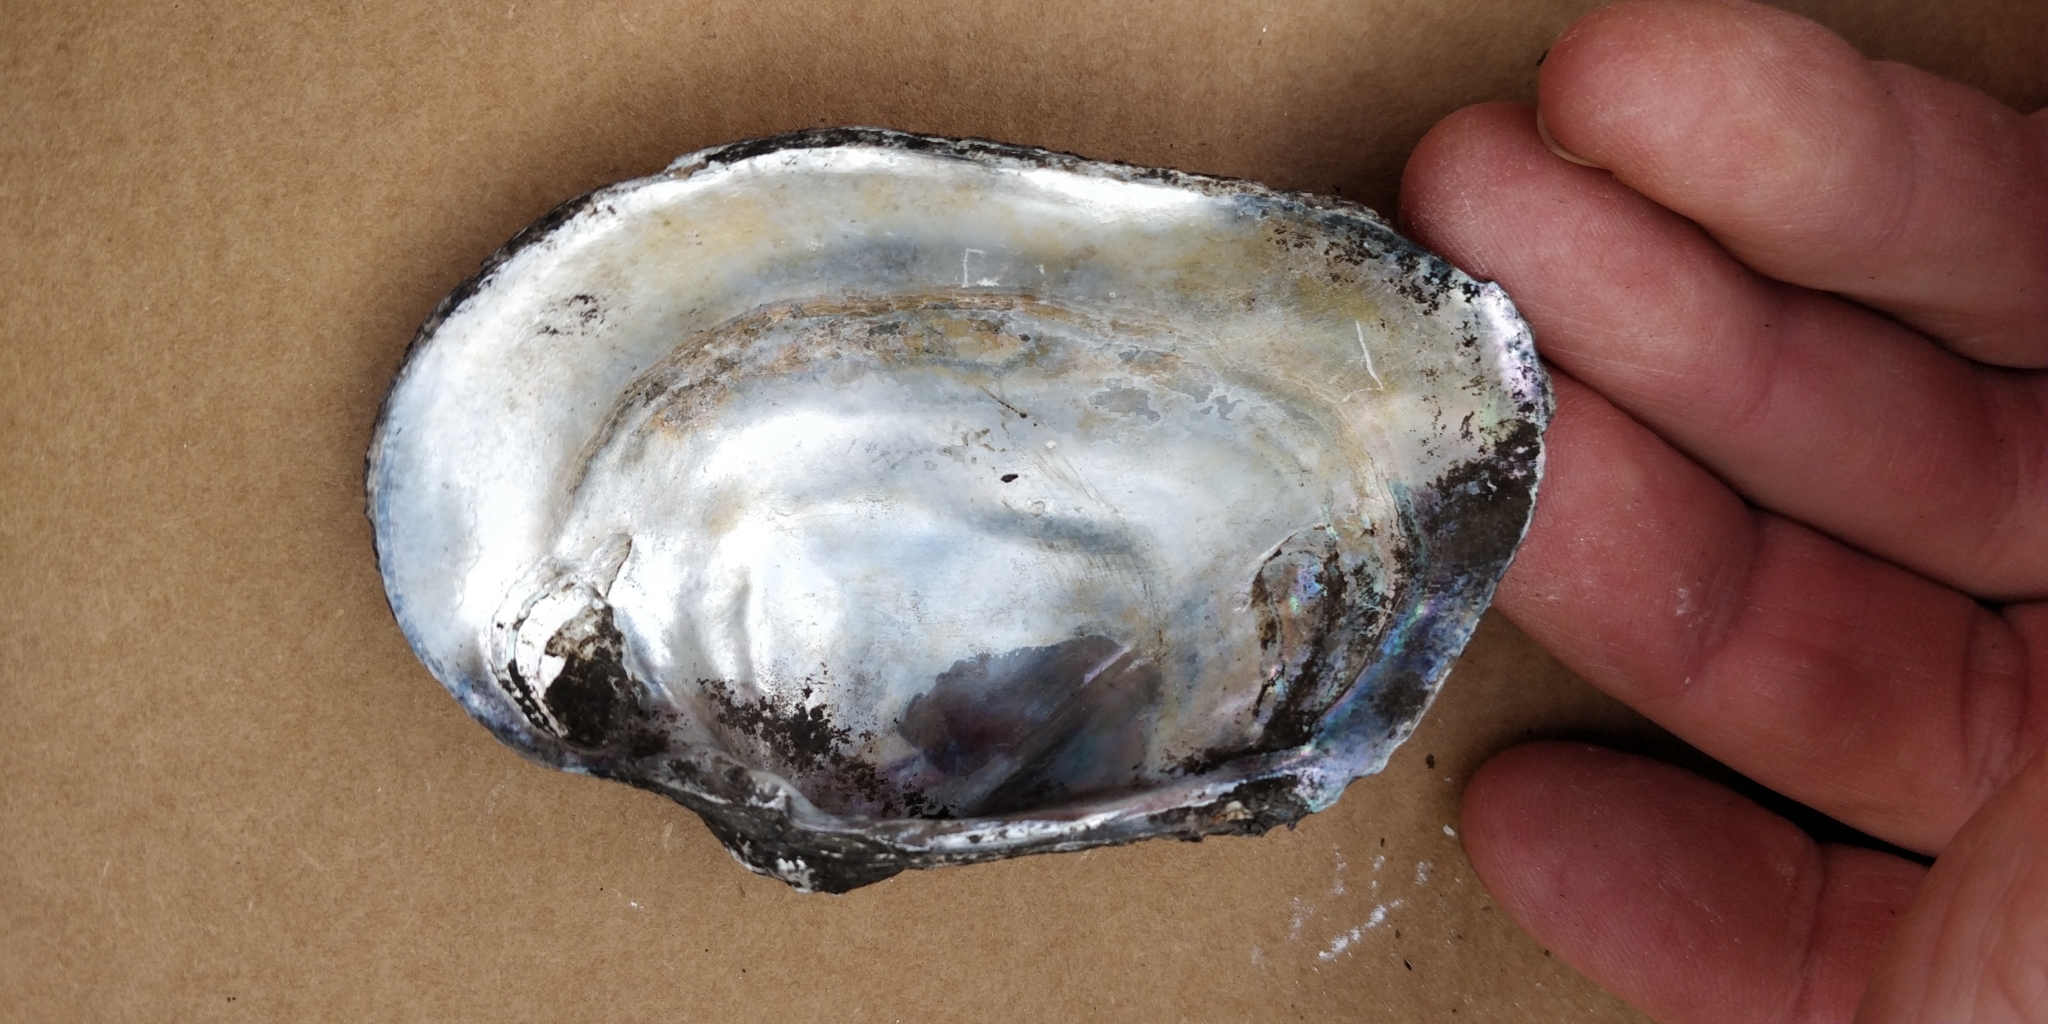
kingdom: Animalia
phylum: Mollusca
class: Bivalvia
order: Unionida
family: Unionidae
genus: Arcidens
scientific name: Arcidens confragosus
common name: Rock pocketbook
